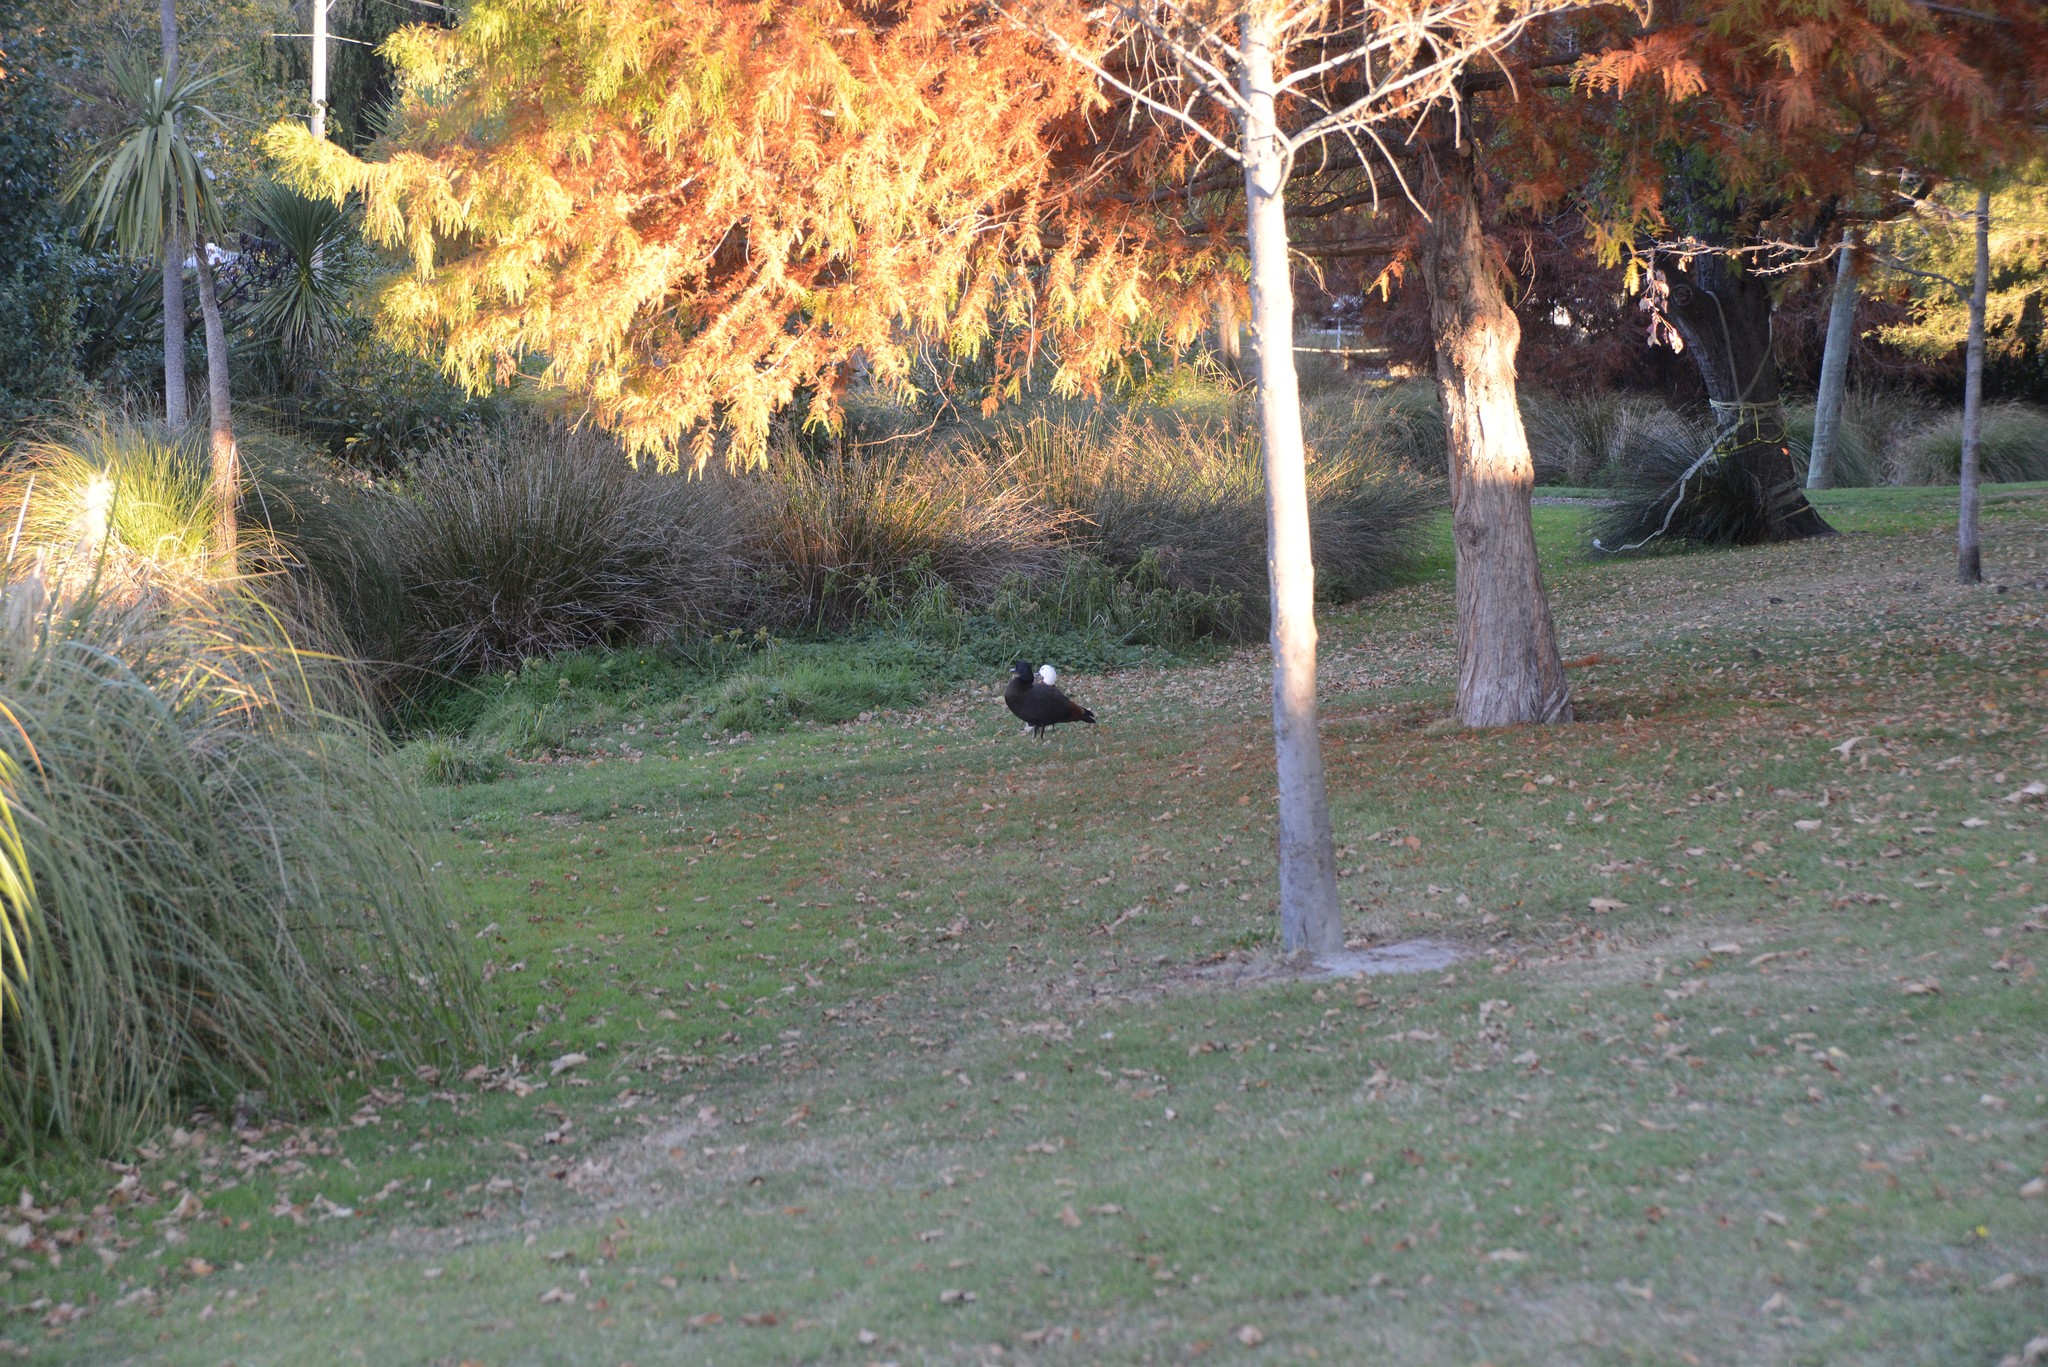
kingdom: Animalia
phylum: Chordata
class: Aves
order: Anseriformes
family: Anatidae
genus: Tadorna
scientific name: Tadorna variegata
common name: Paradise shelduck
